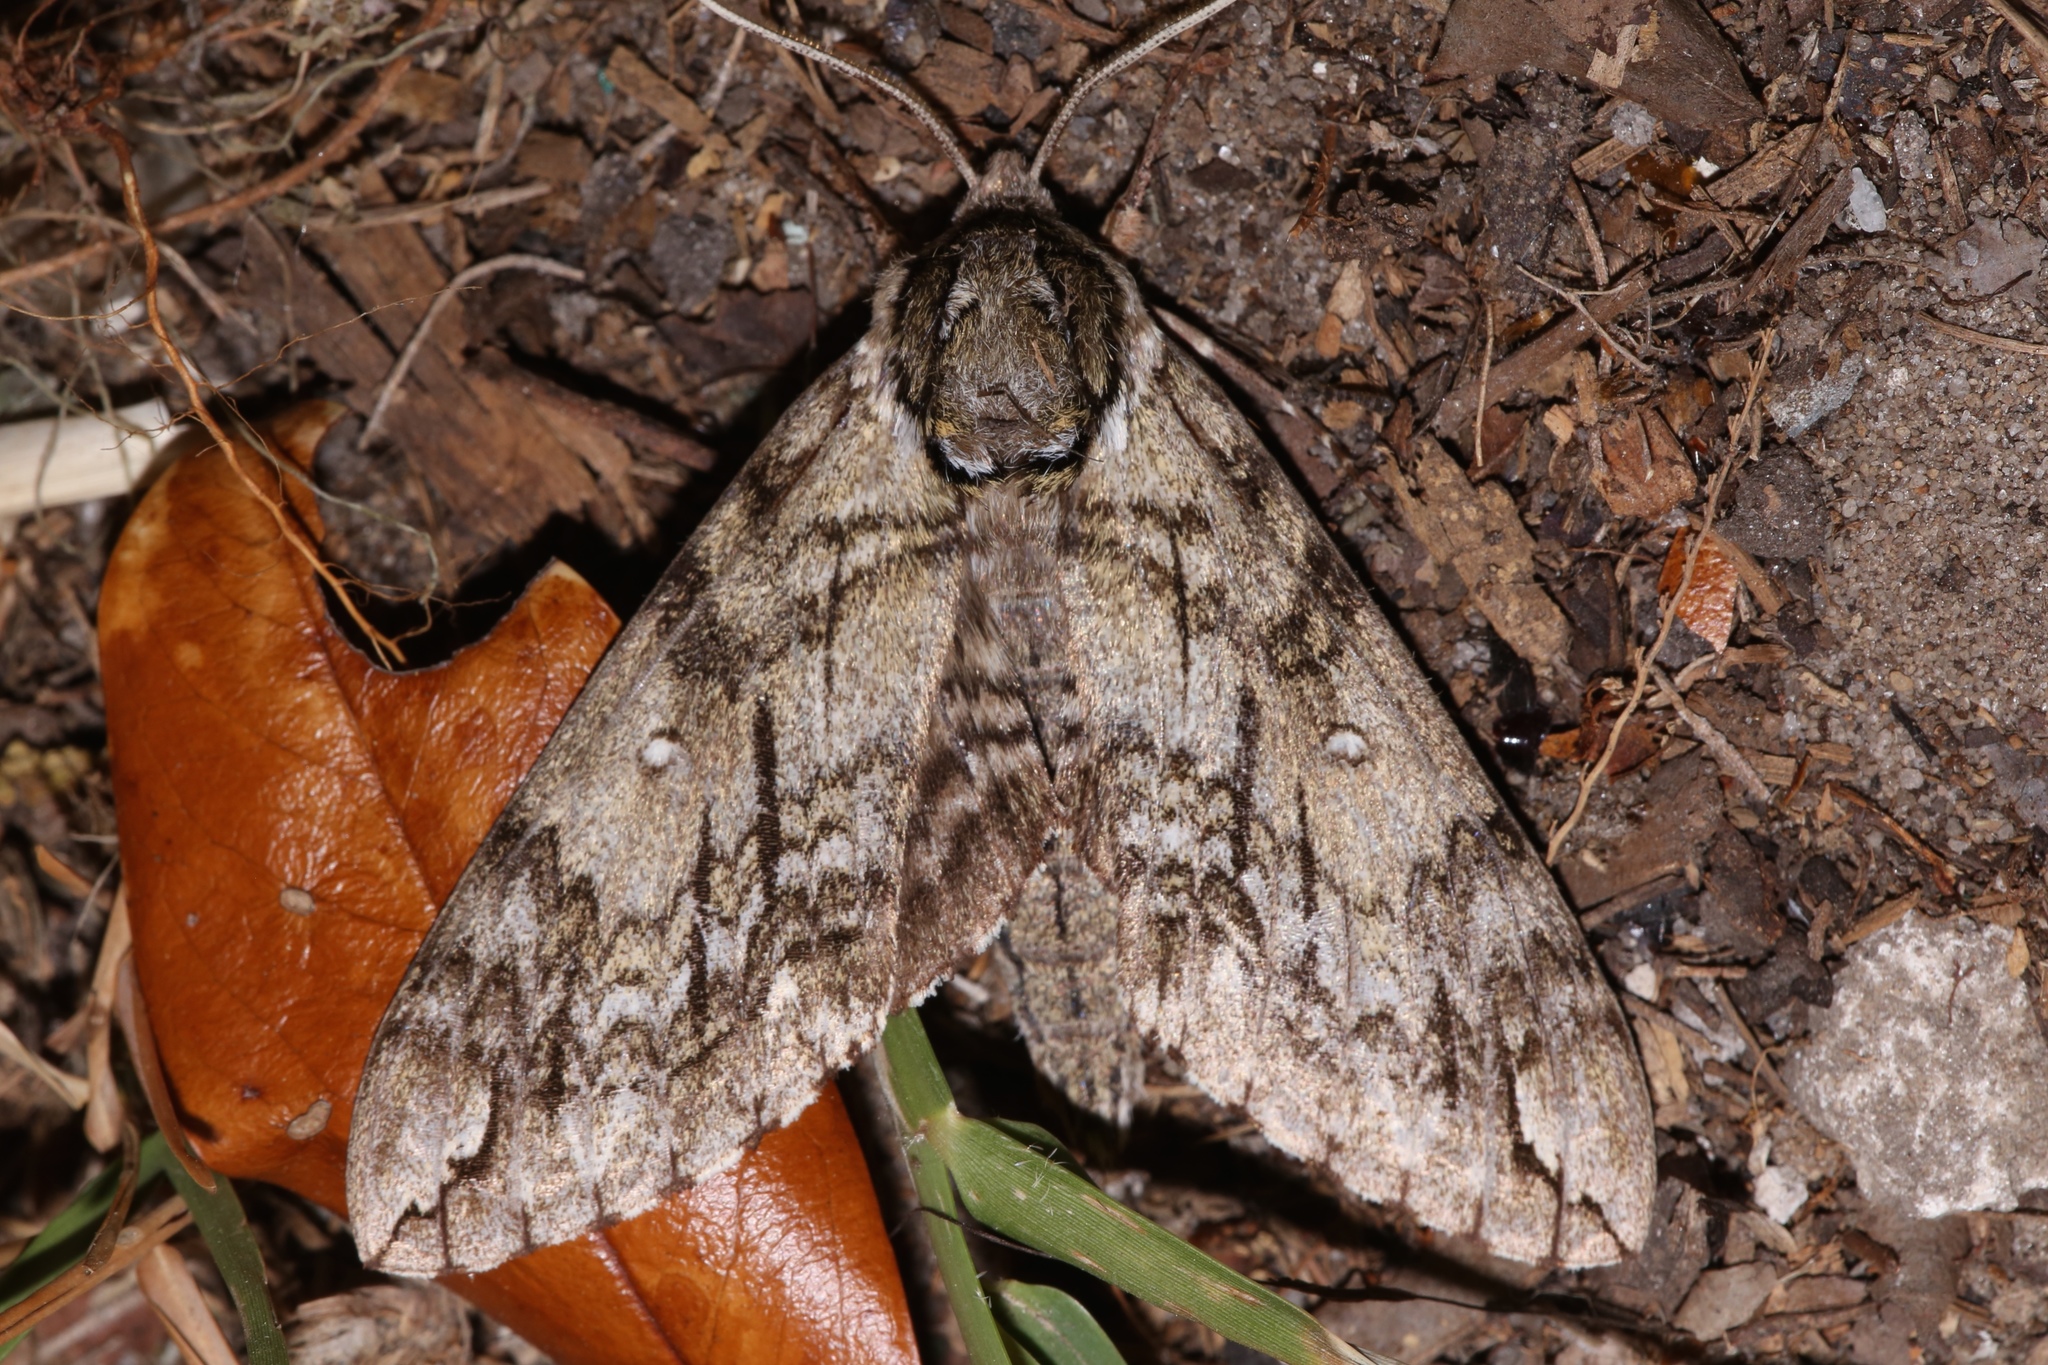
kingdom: Animalia
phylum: Arthropoda
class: Insecta
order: Lepidoptera
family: Sphingidae
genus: Ceratomia
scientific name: Ceratomia undulosa
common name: Waved sphinx
